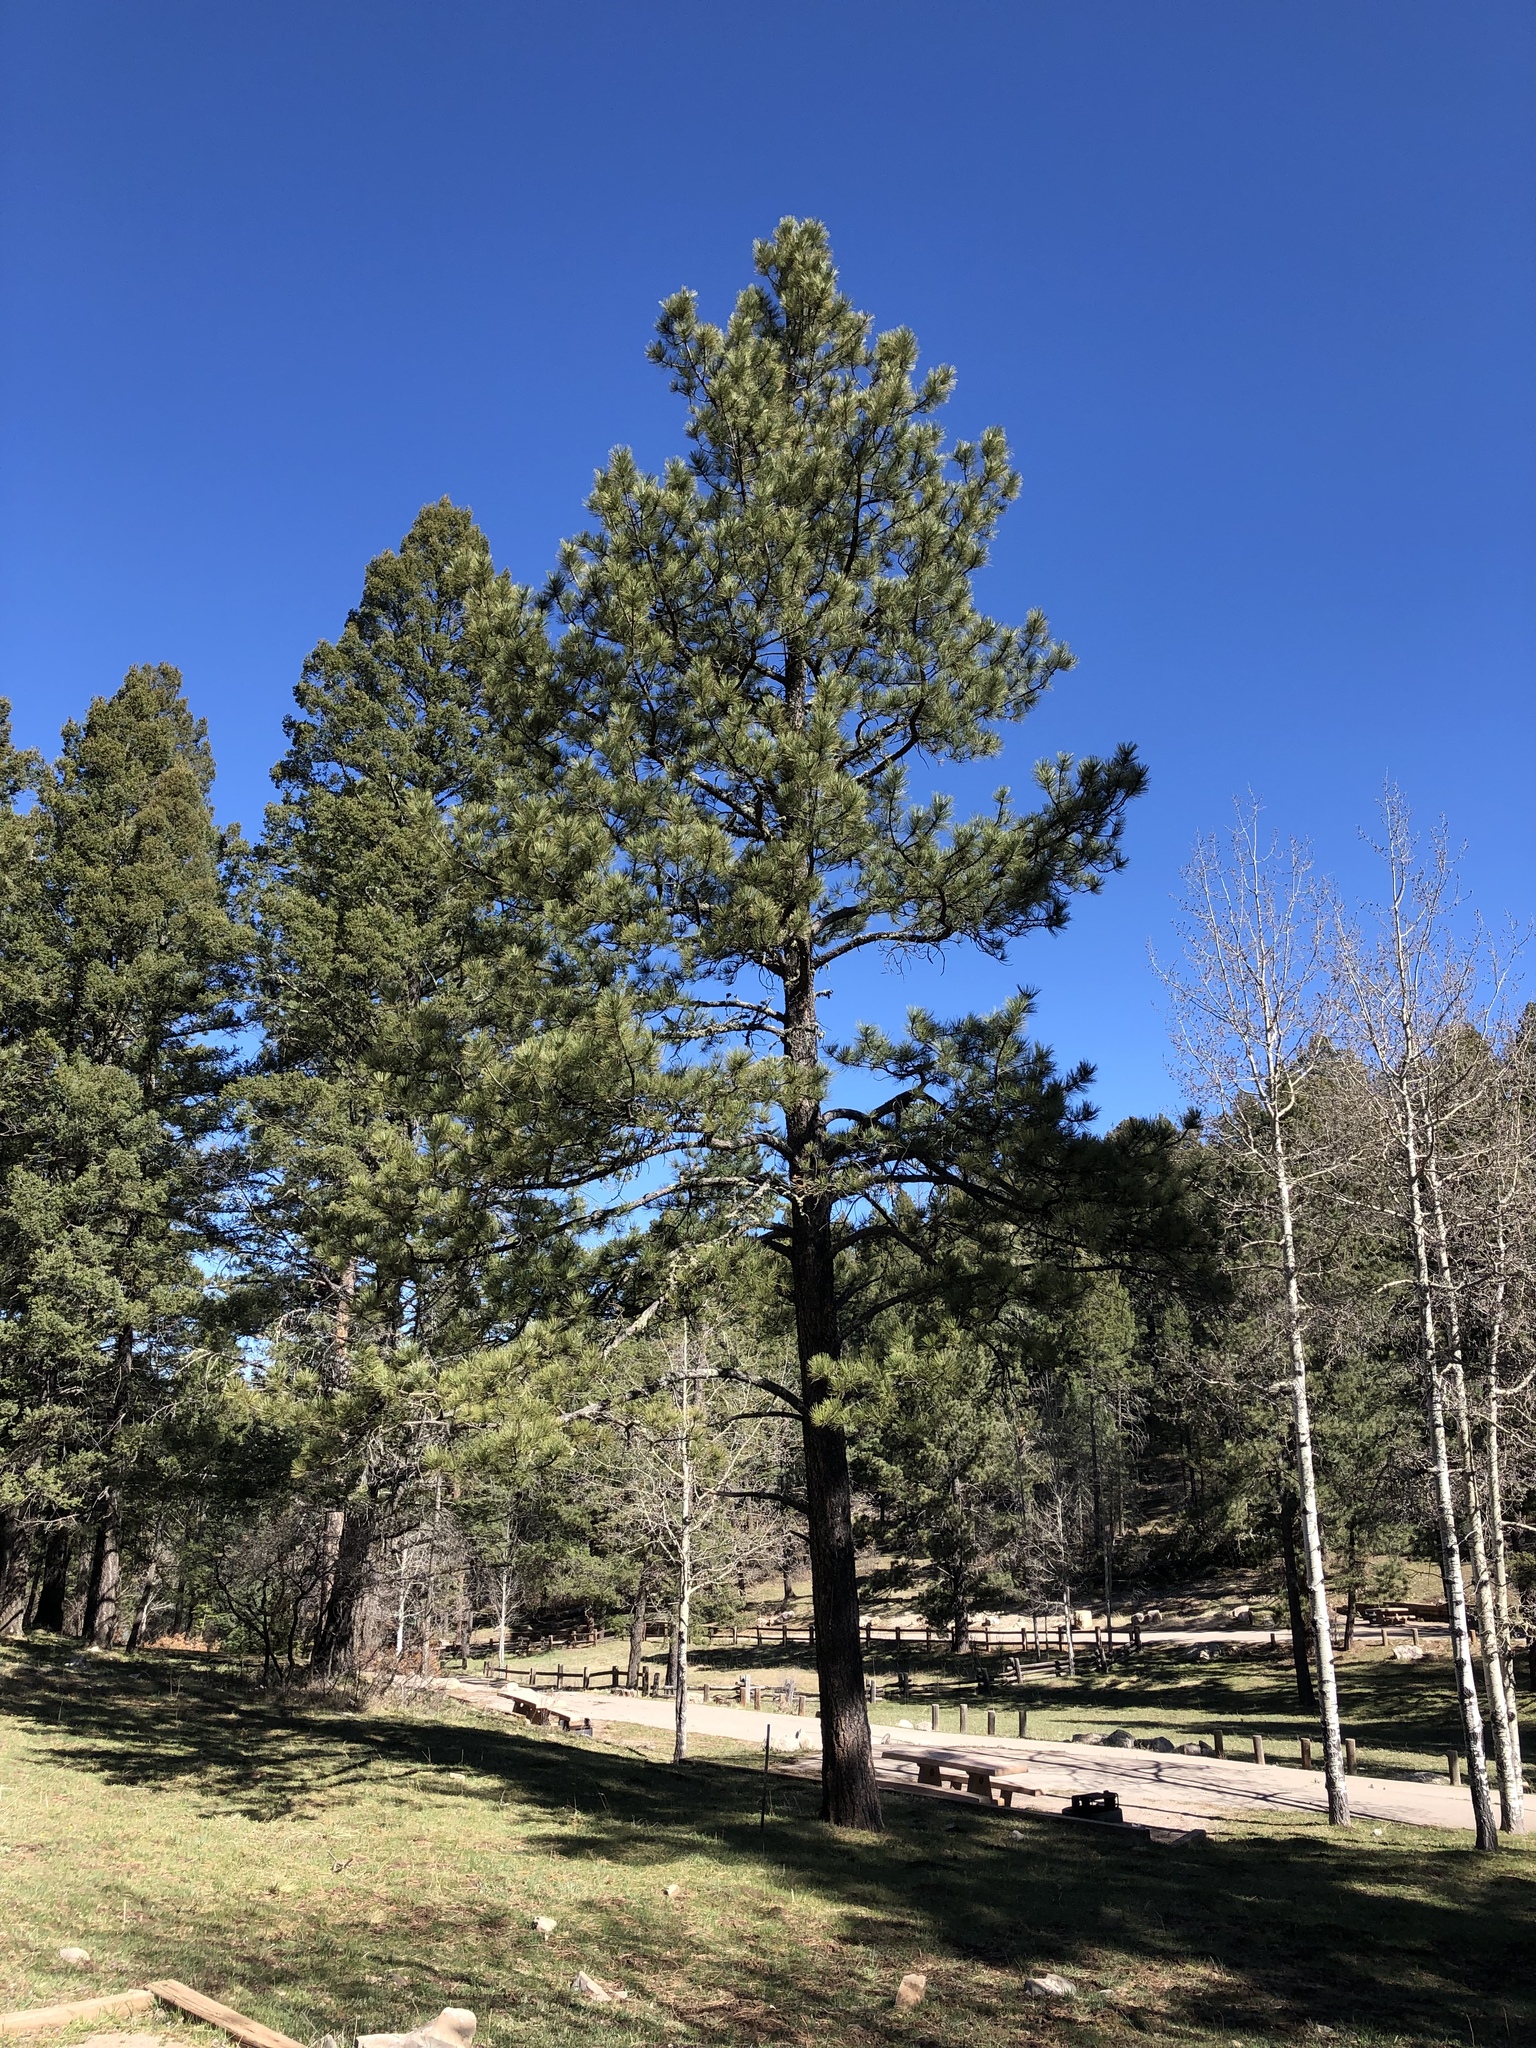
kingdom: Plantae
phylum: Tracheophyta
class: Pinopsida
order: Pinales
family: Pinaceae
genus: Pinus
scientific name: Pinus ponderosa
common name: Western yellow-pine
